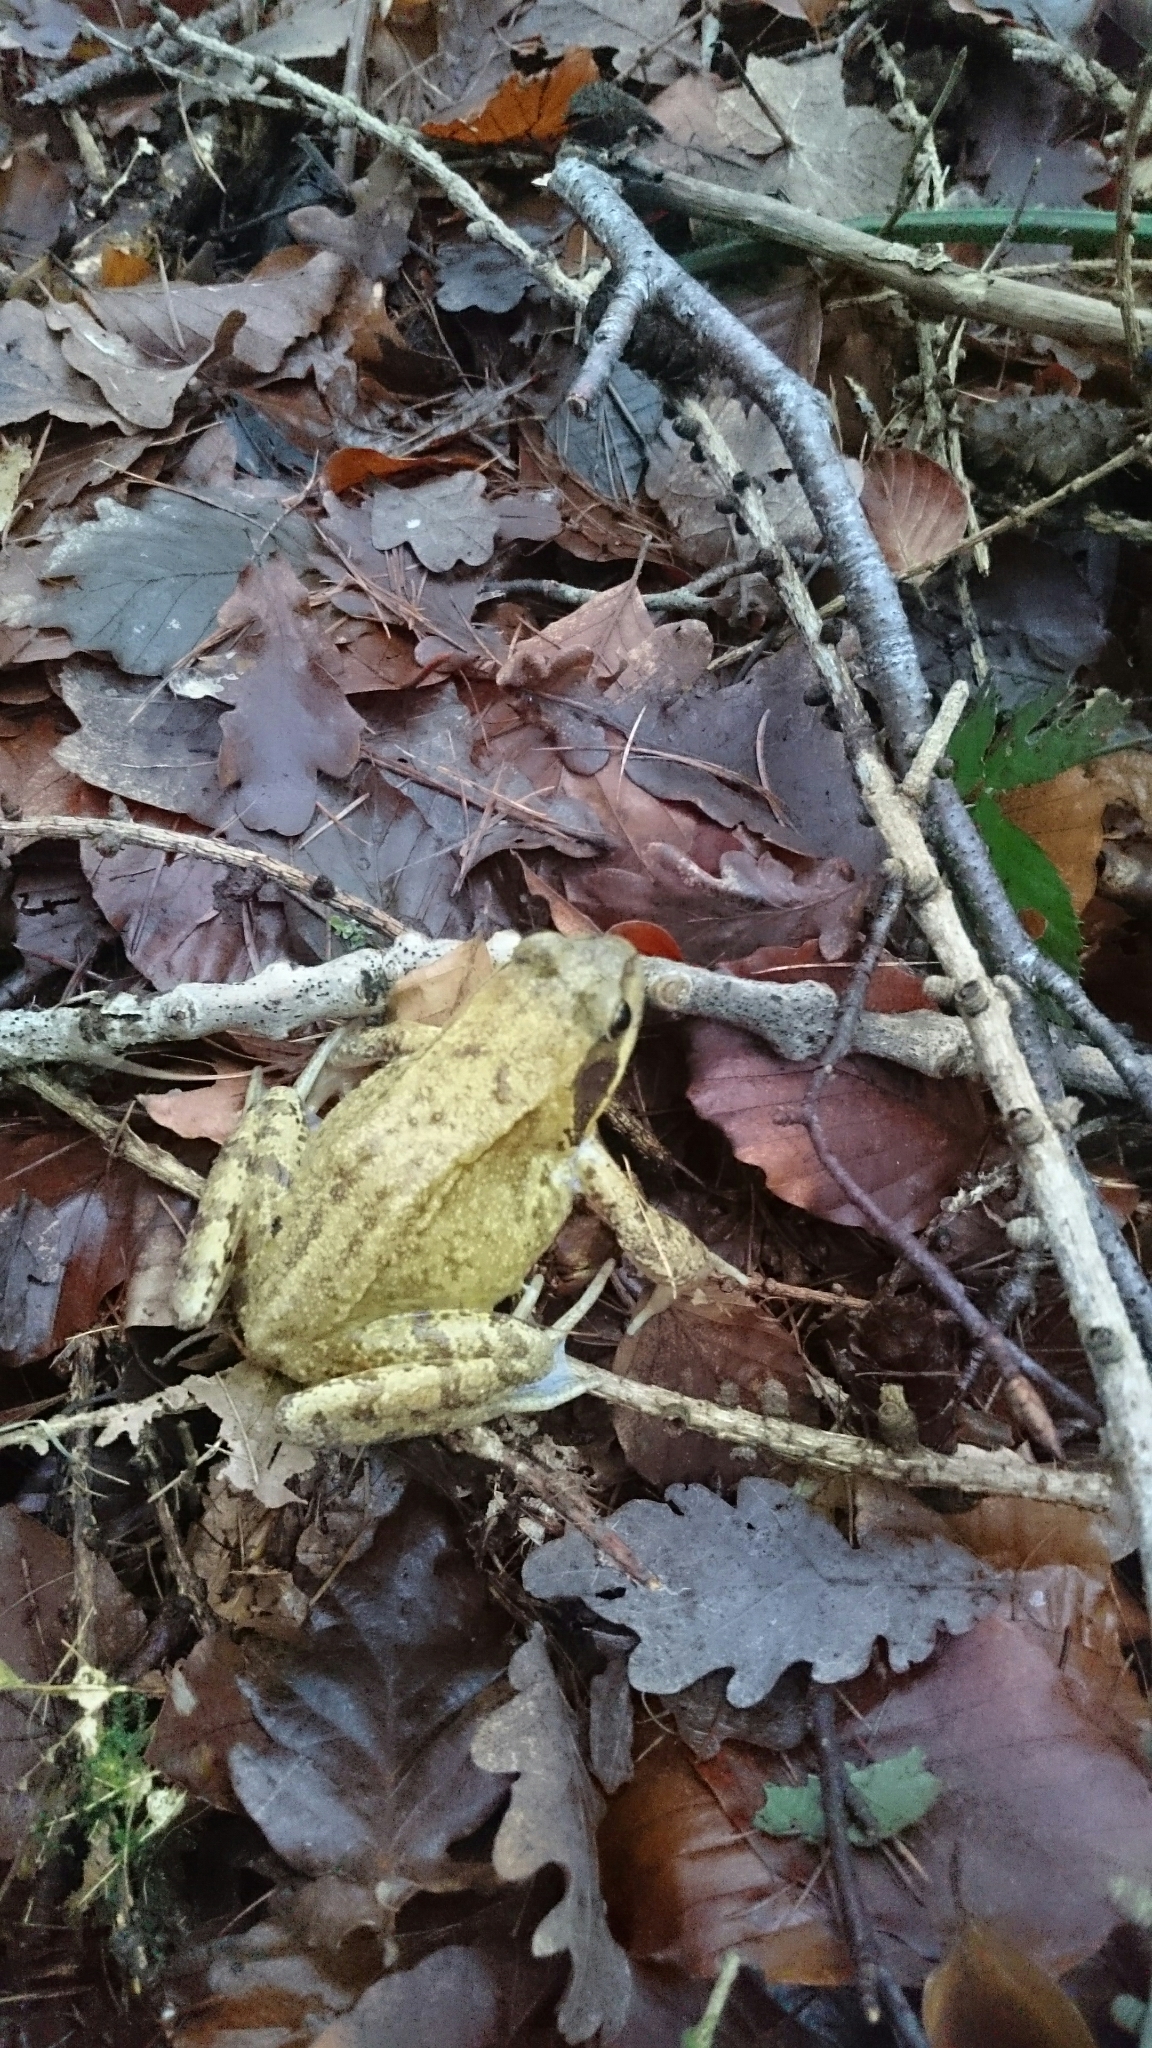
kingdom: Animalia
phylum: Chordata
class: Amphibia
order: Anura
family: Ranidae
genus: Rana
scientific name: Rana temporaria
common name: Common frog
